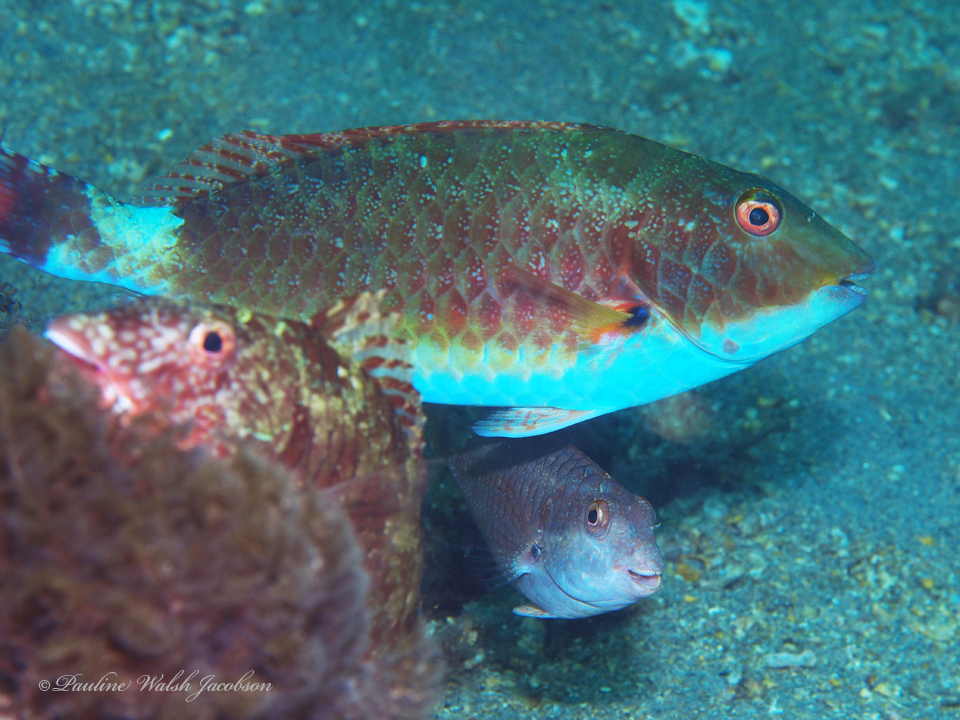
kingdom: Animalia
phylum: Chordata
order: Perciformes
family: Scaridae
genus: Sparisoma
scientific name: Sparisoma chrysopterum
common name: Redtail parrotfish
